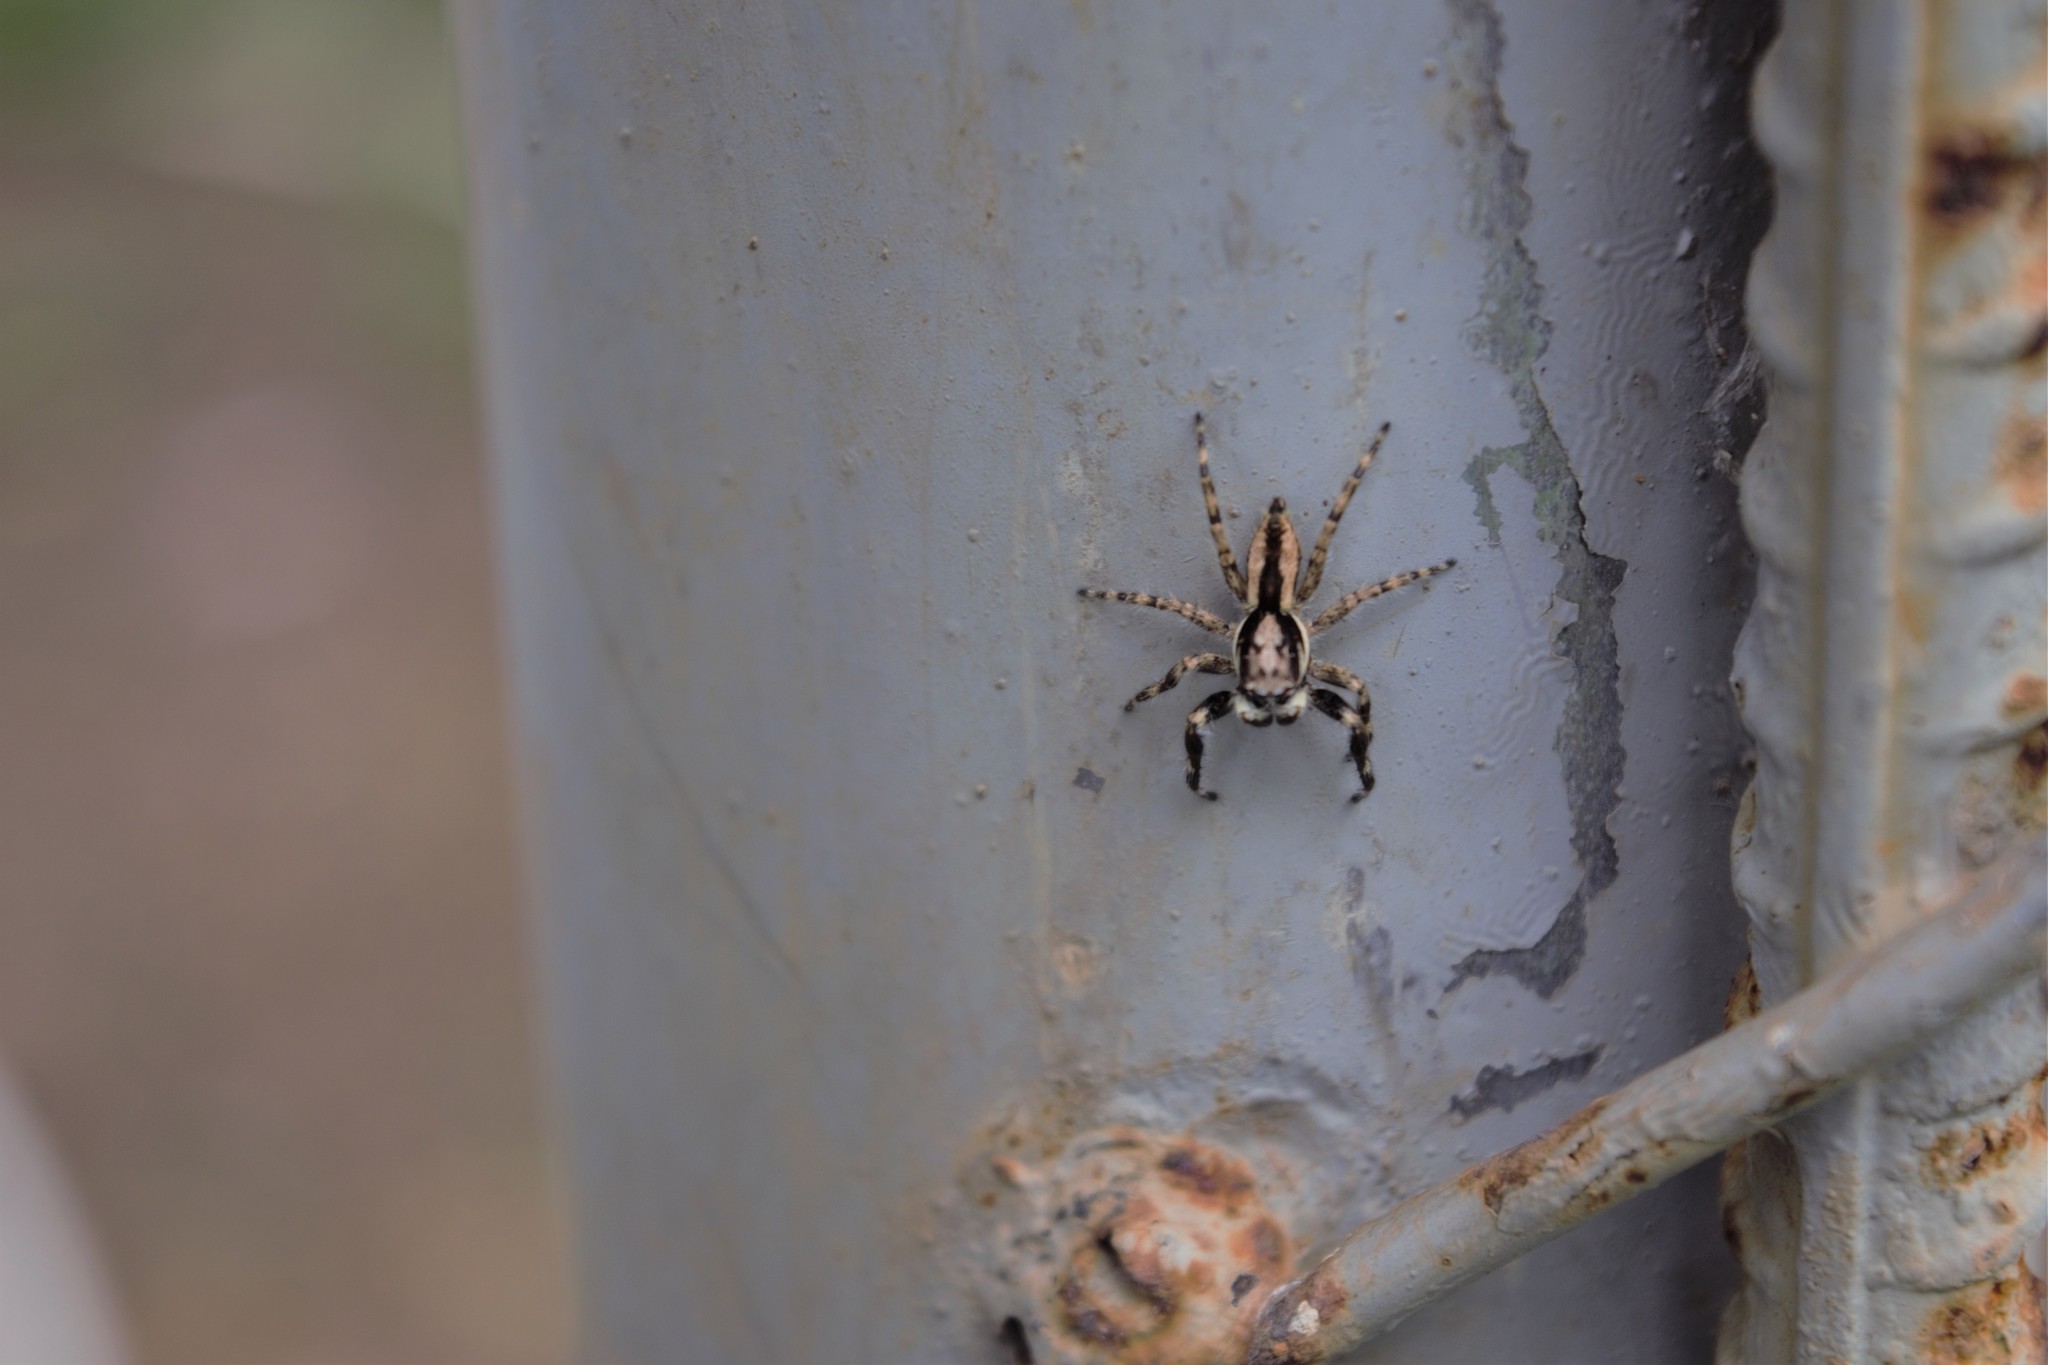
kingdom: Animalia
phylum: Arthropoda
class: Arachnida
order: Araneae
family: Salticidae
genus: Menemerus
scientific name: Menemerus bivittatus
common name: Gray wall jumper
